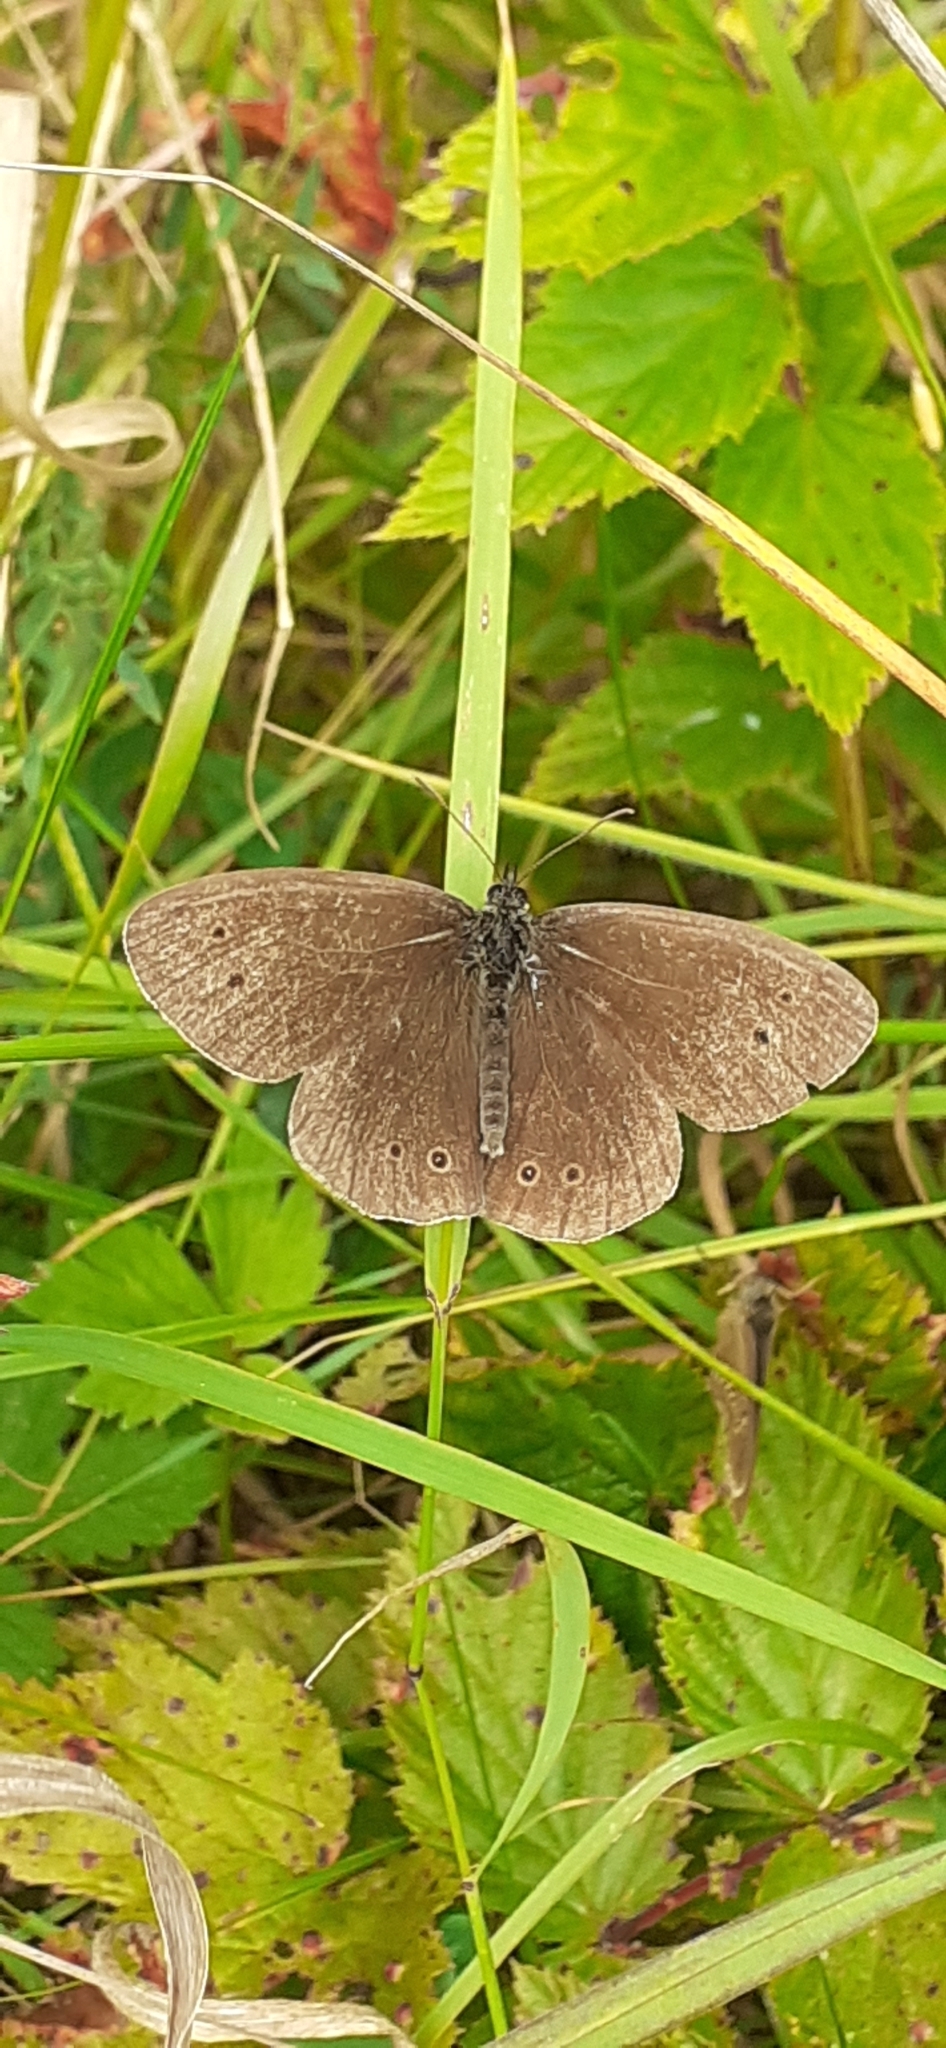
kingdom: Animalia
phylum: Arthropoda
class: Insecta
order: Lepidoptera
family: Nymphalidae
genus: Aphantopus
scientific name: Aphantopus hyperantus
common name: Ringlet
